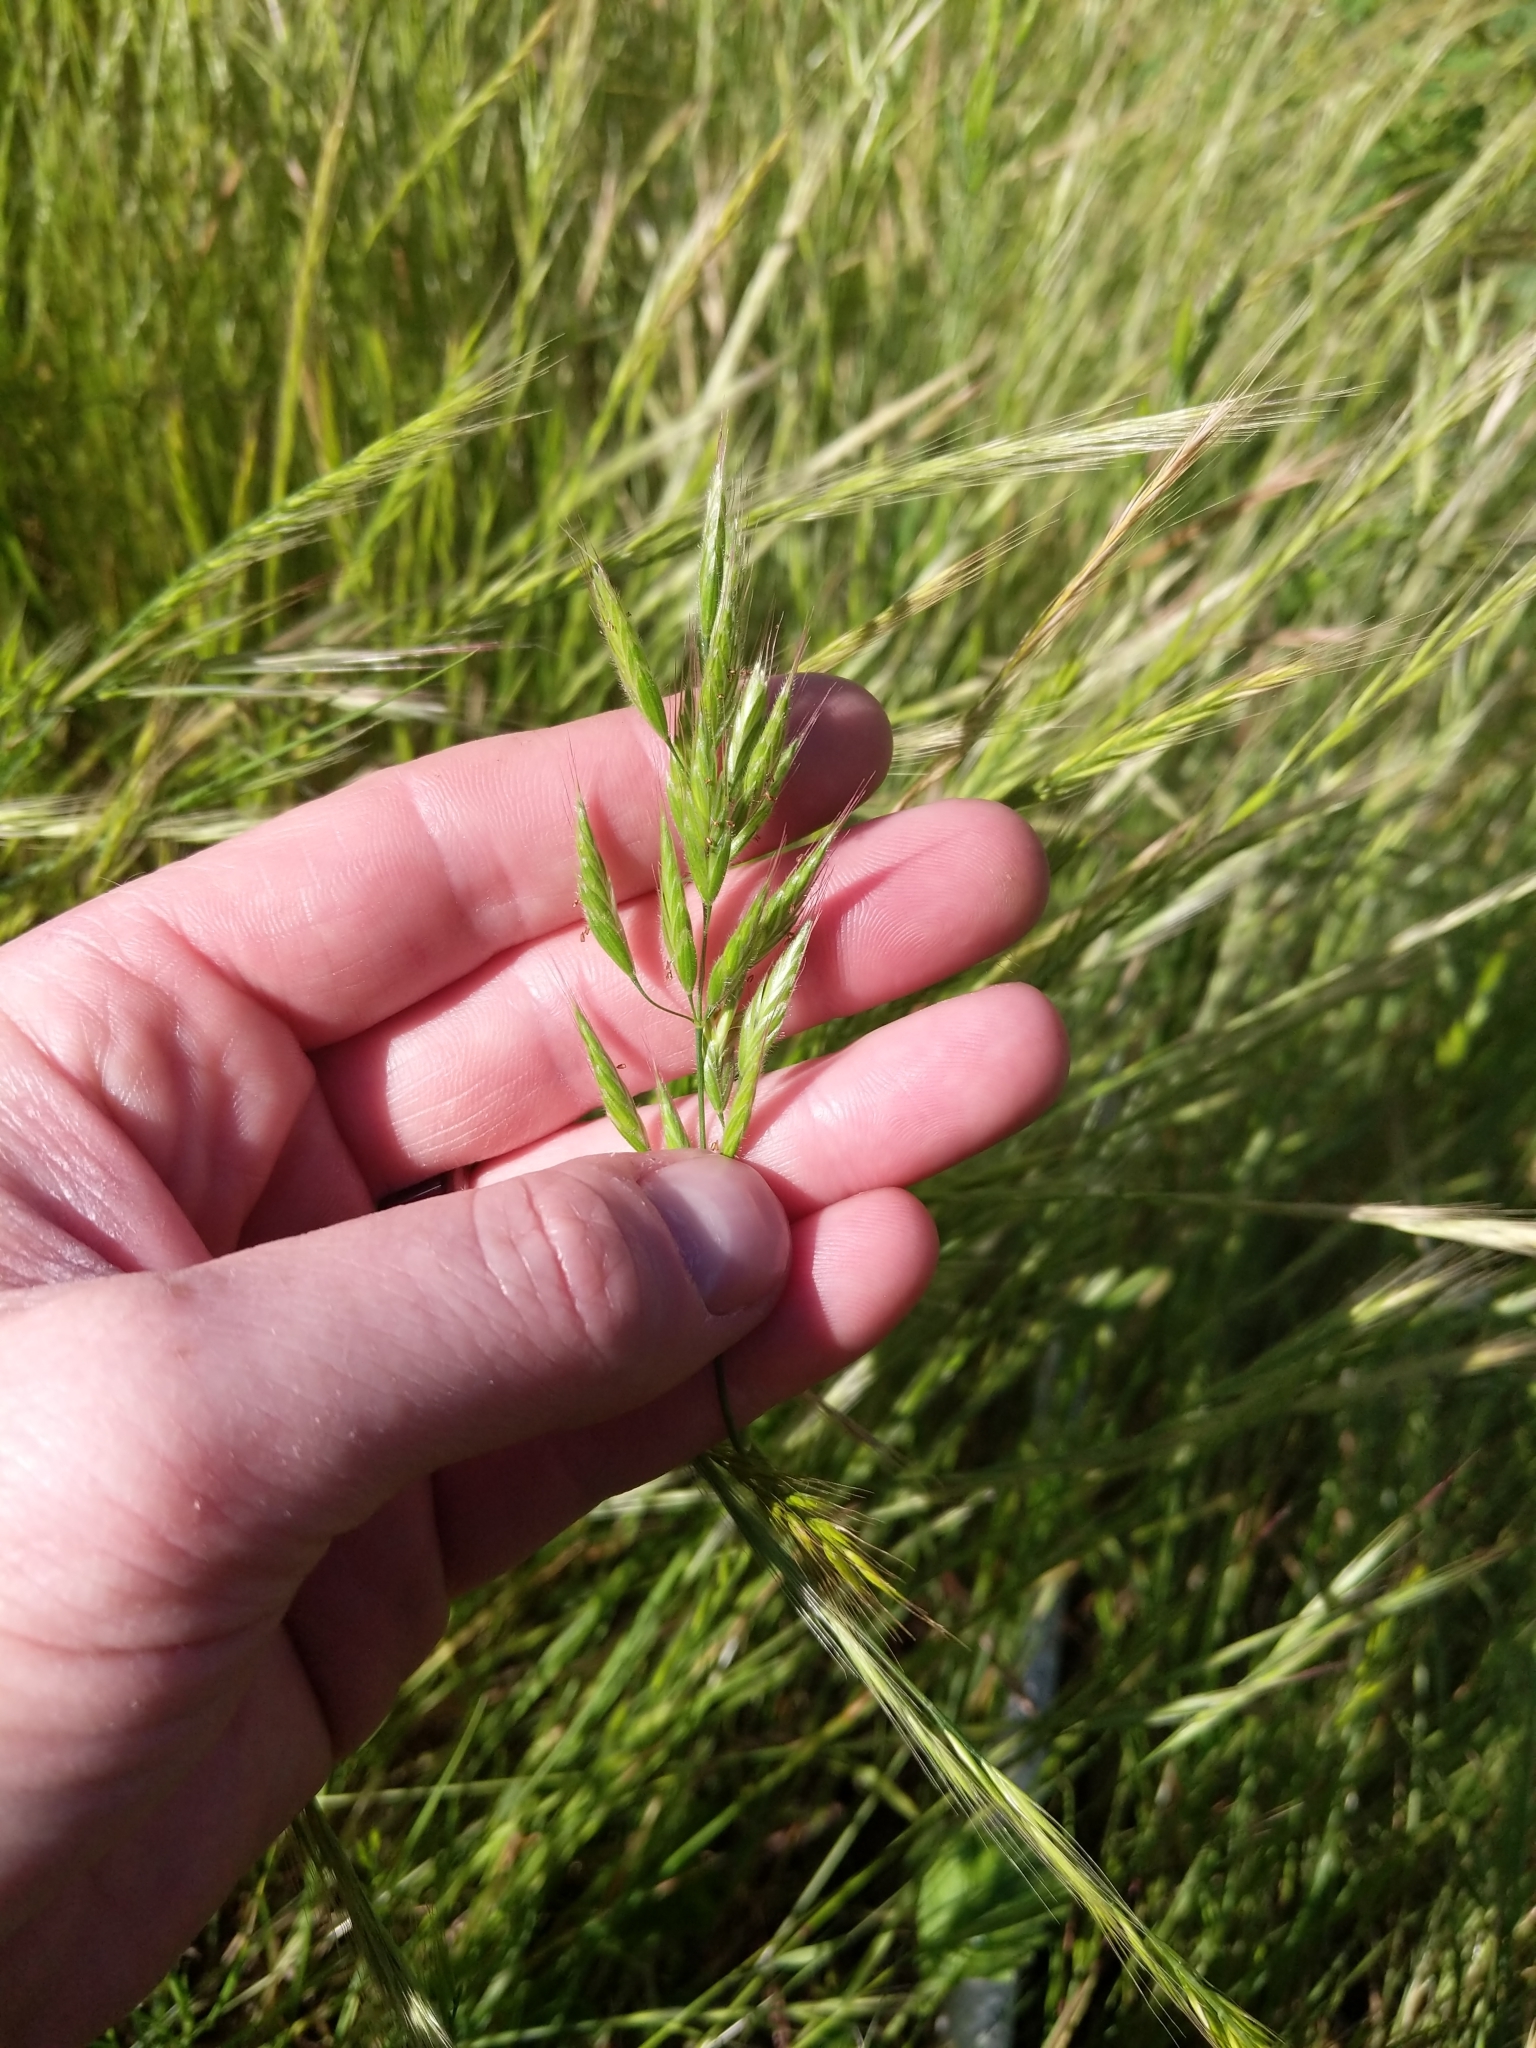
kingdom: Plantae
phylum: Tracheophyta
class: Liliopsida
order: Poales
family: Poaceae
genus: Bromus
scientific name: Bromus hordeaceus
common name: Soft brome
